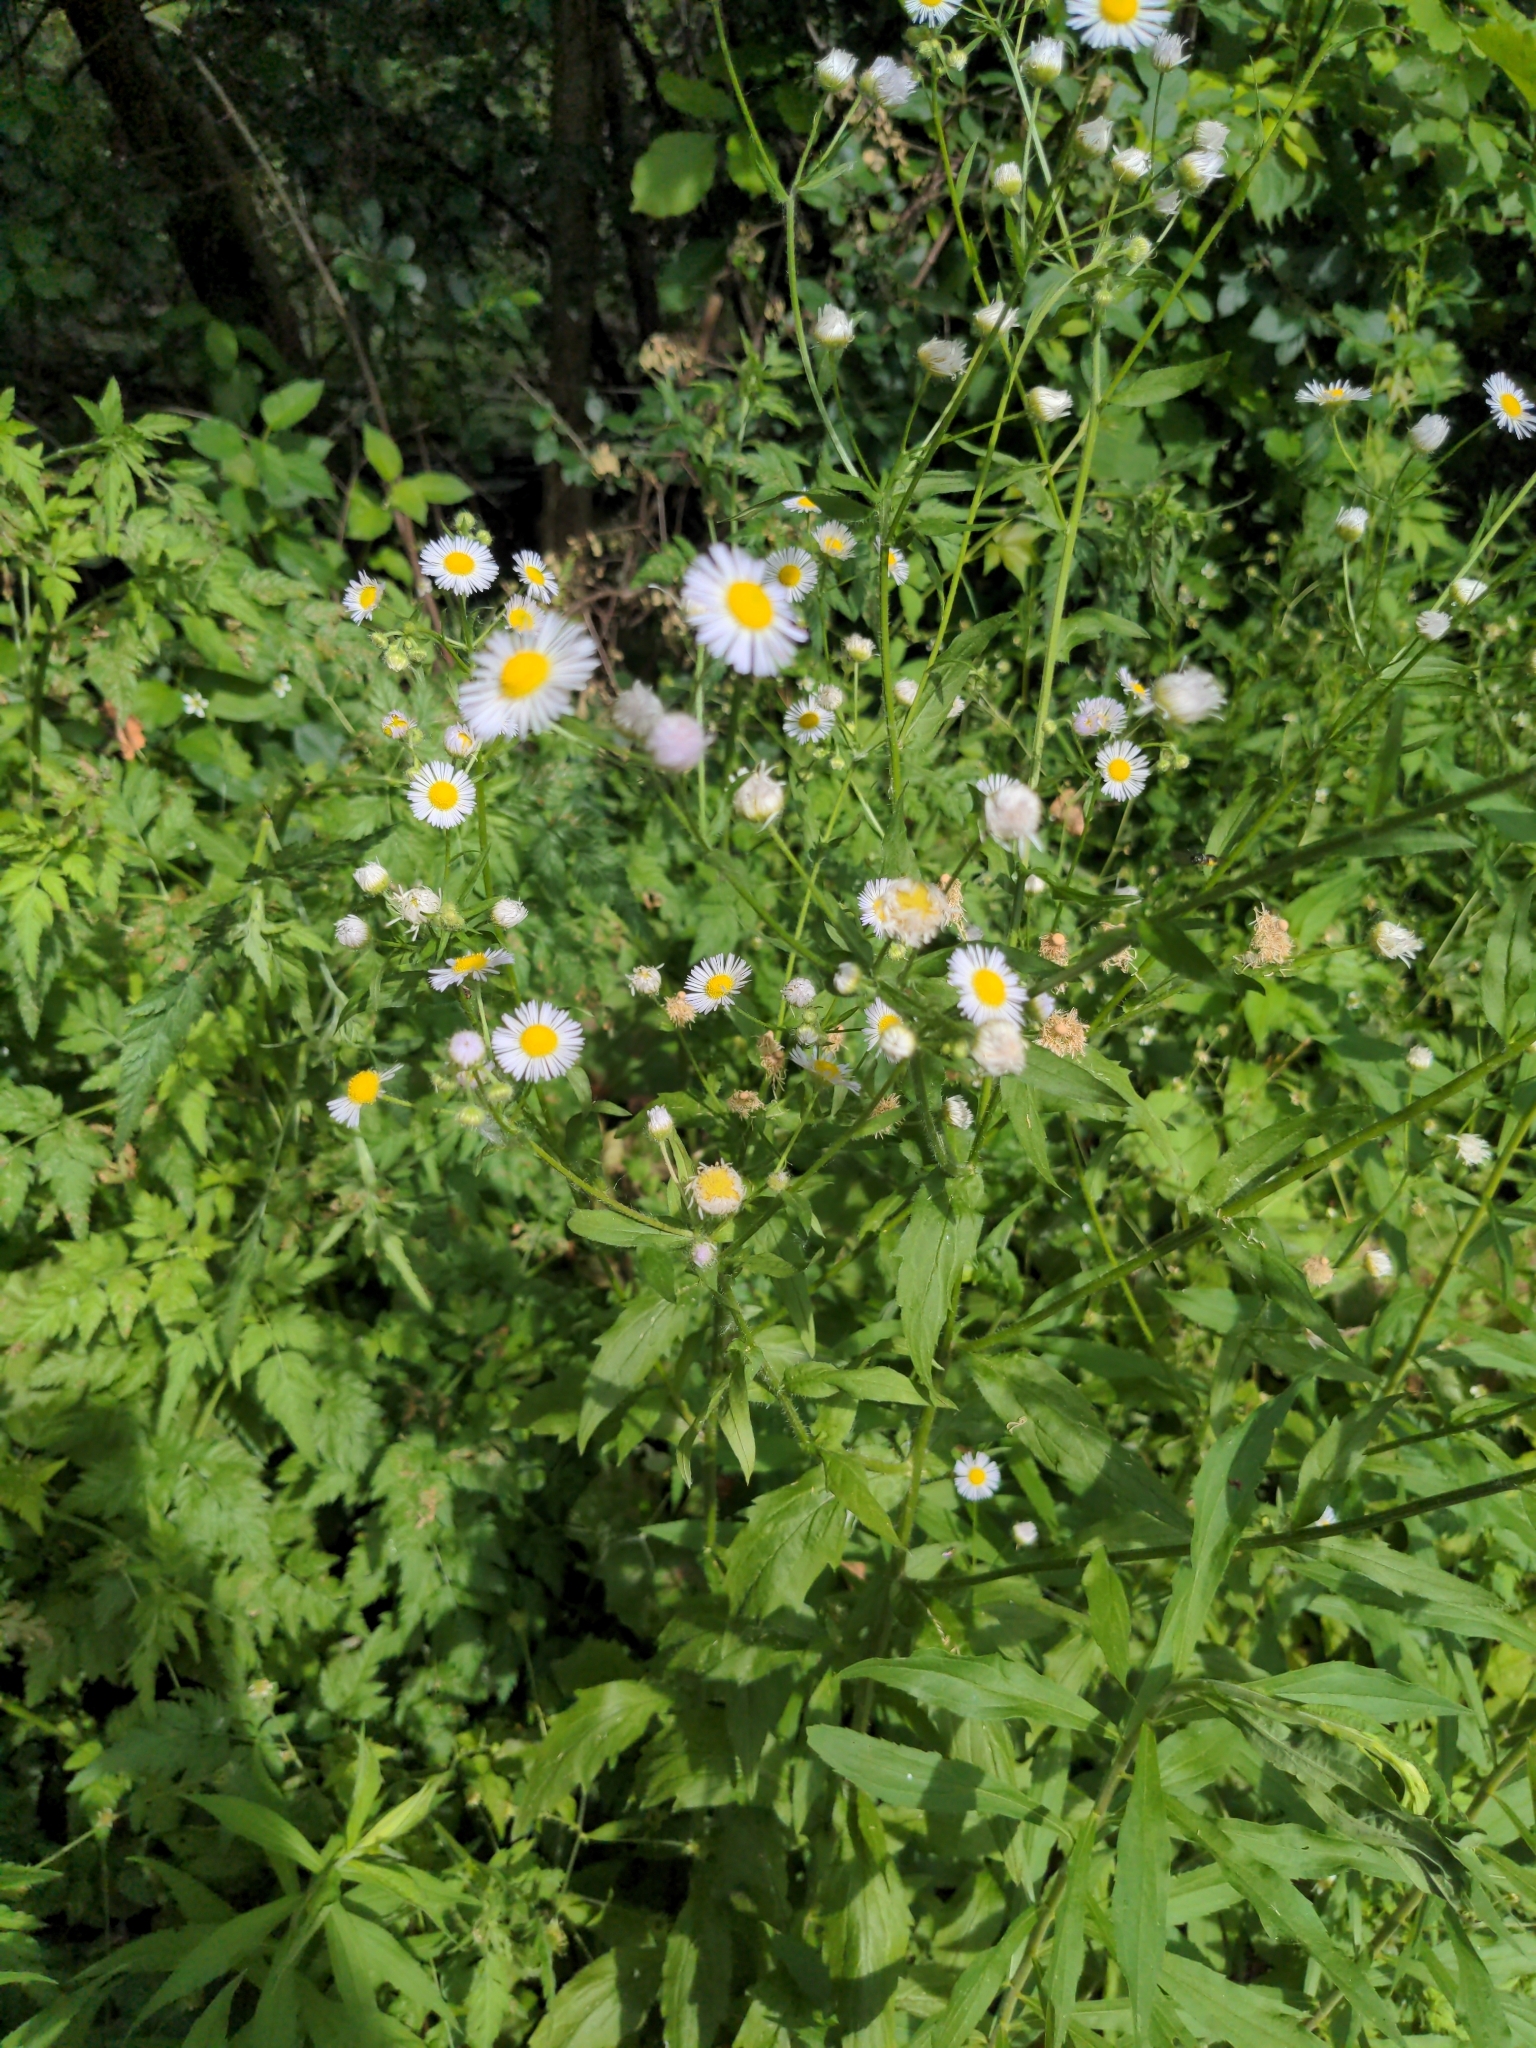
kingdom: Plantae
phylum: Tracheophyta
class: Magnoliopsida
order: Asterales
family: Asteraceae
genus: Erigeron
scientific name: Erigeron annuus
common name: Tall fleabane
